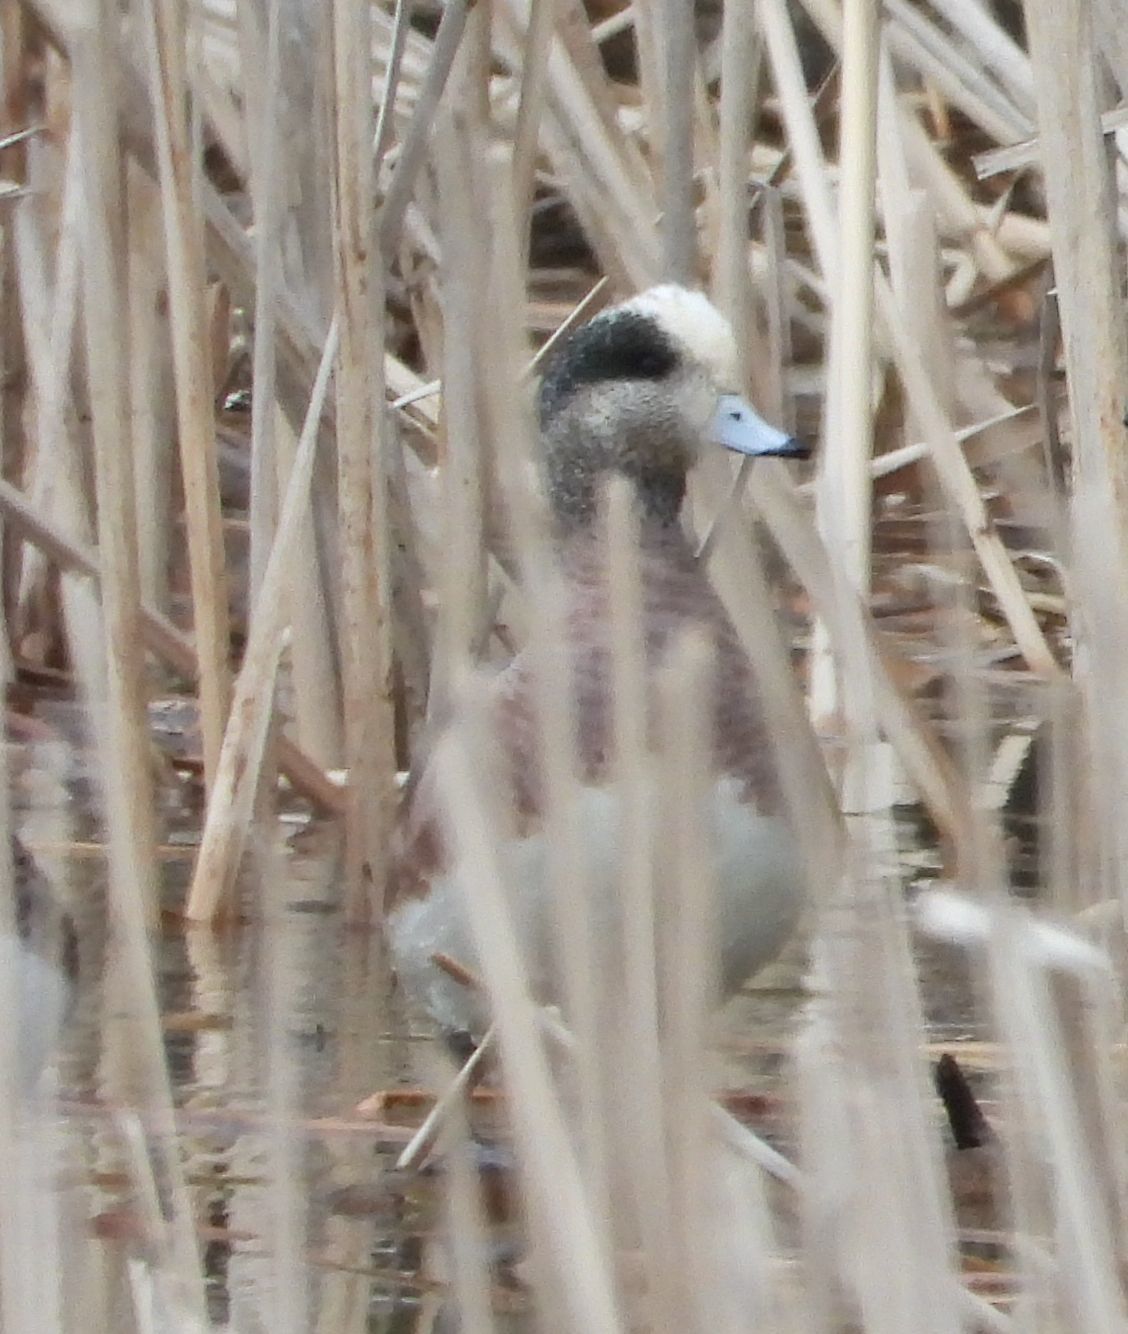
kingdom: Animalia
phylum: Chordata
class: Aves
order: Anseriformes
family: Anatidae
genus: Mareca
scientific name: Mareca americana
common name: American wigeon
